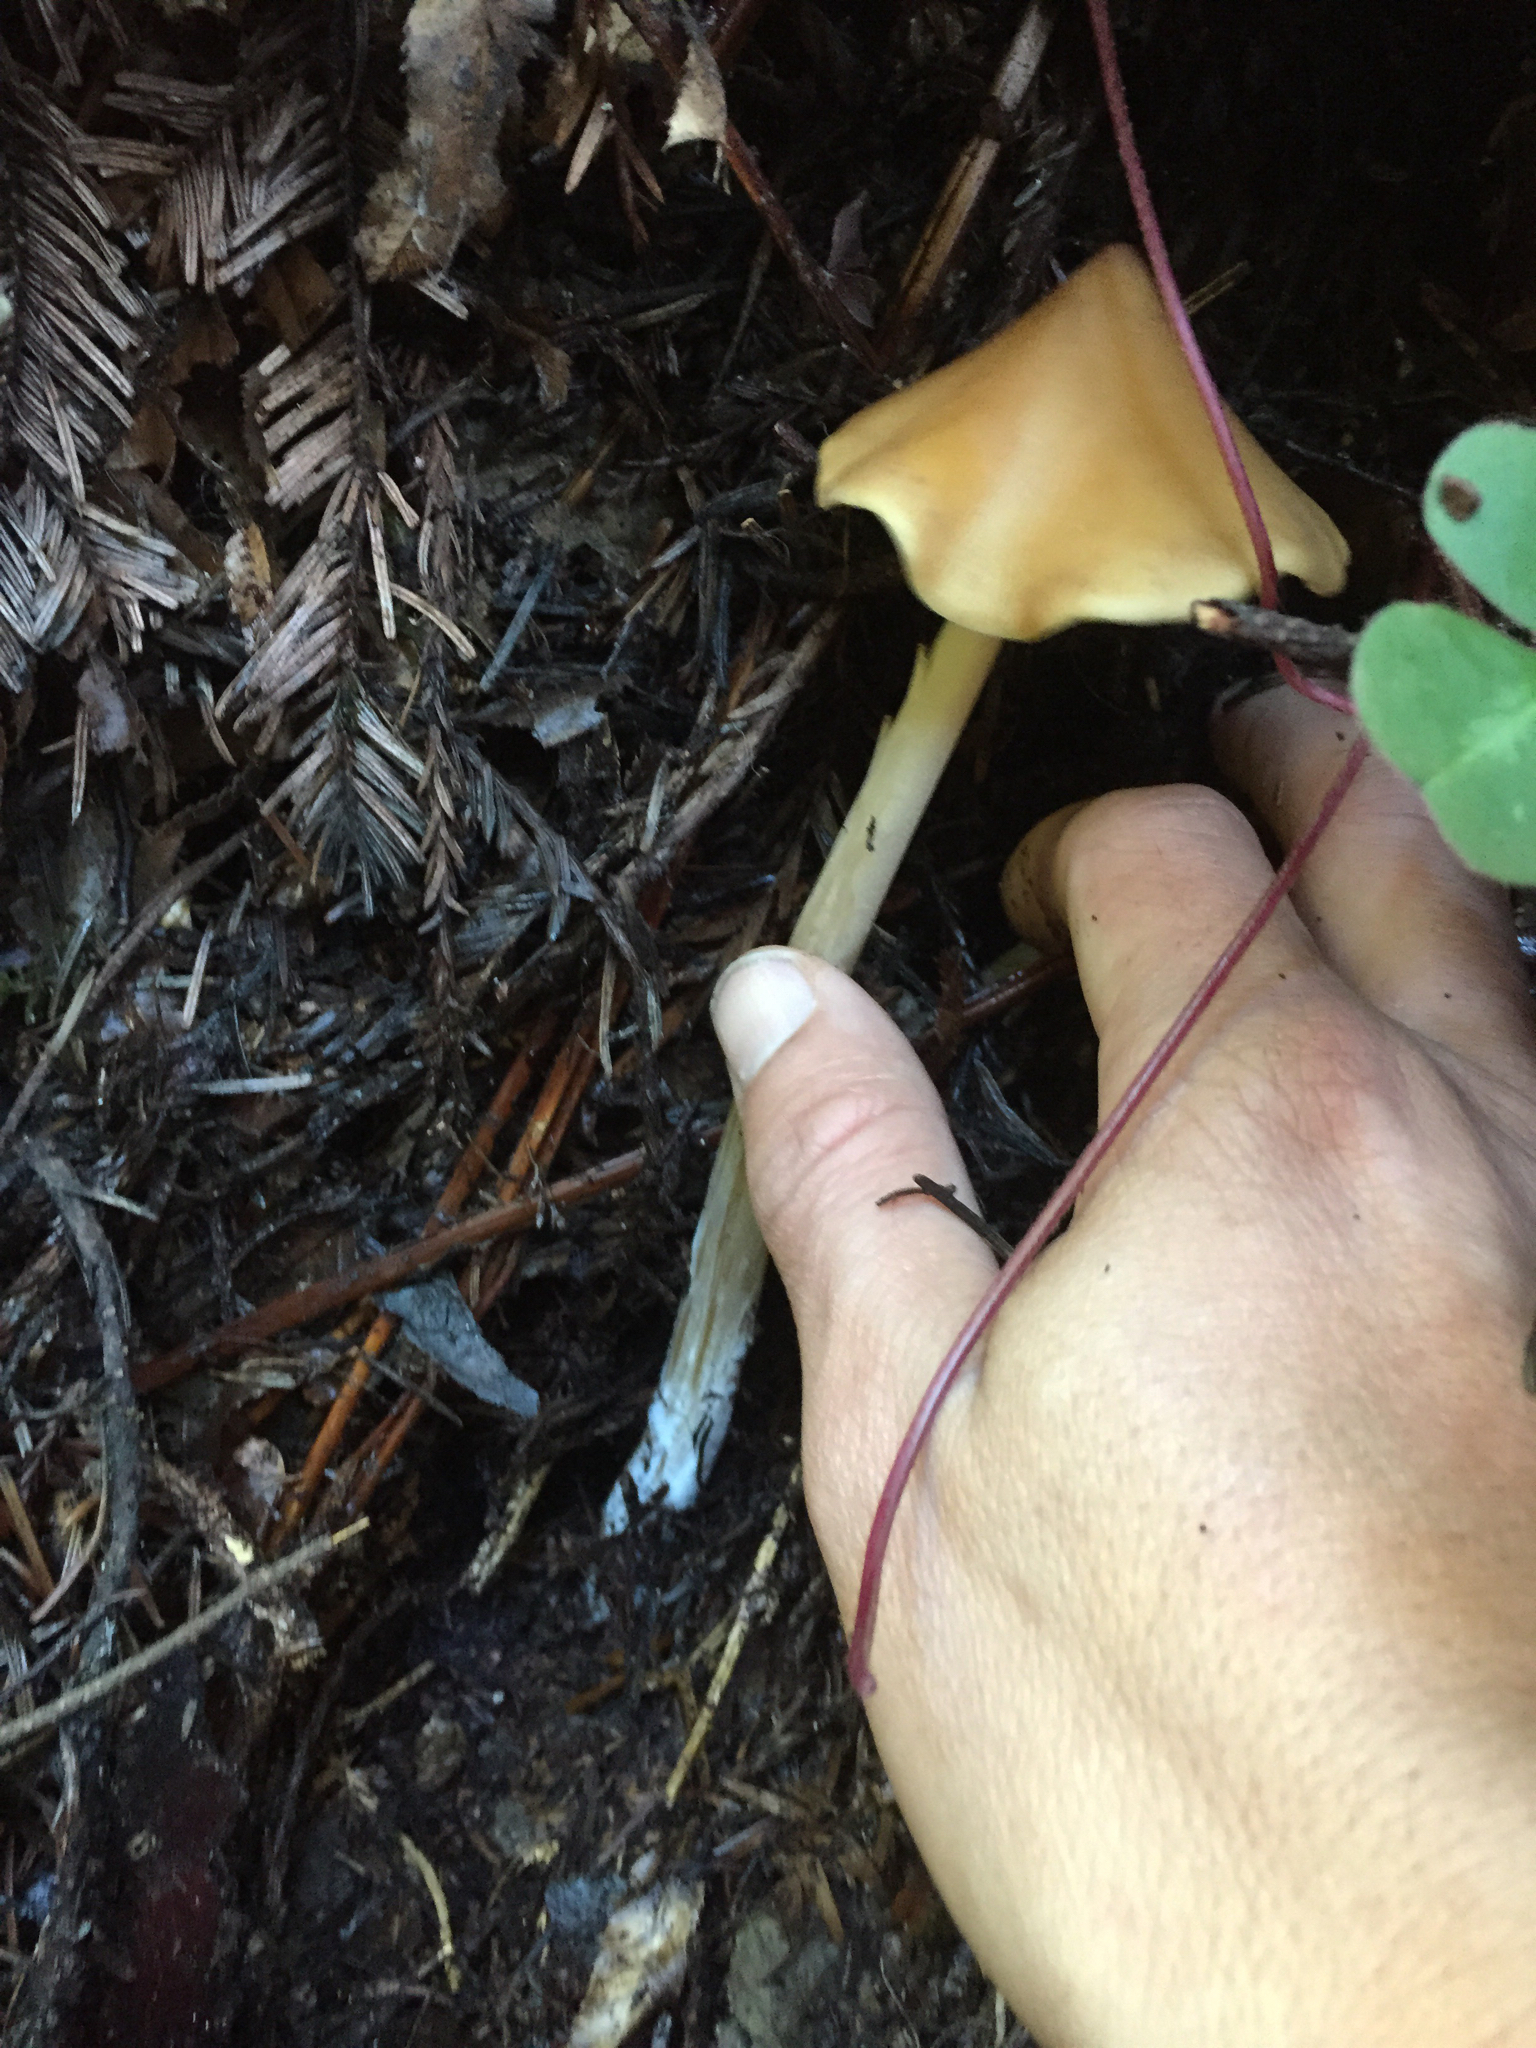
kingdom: Fungi
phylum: Basidiomycota
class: Agaricomycetes
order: Agaricales
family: Tricholomataceae
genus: Caulorhiza
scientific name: Caulorhiza umbonata
